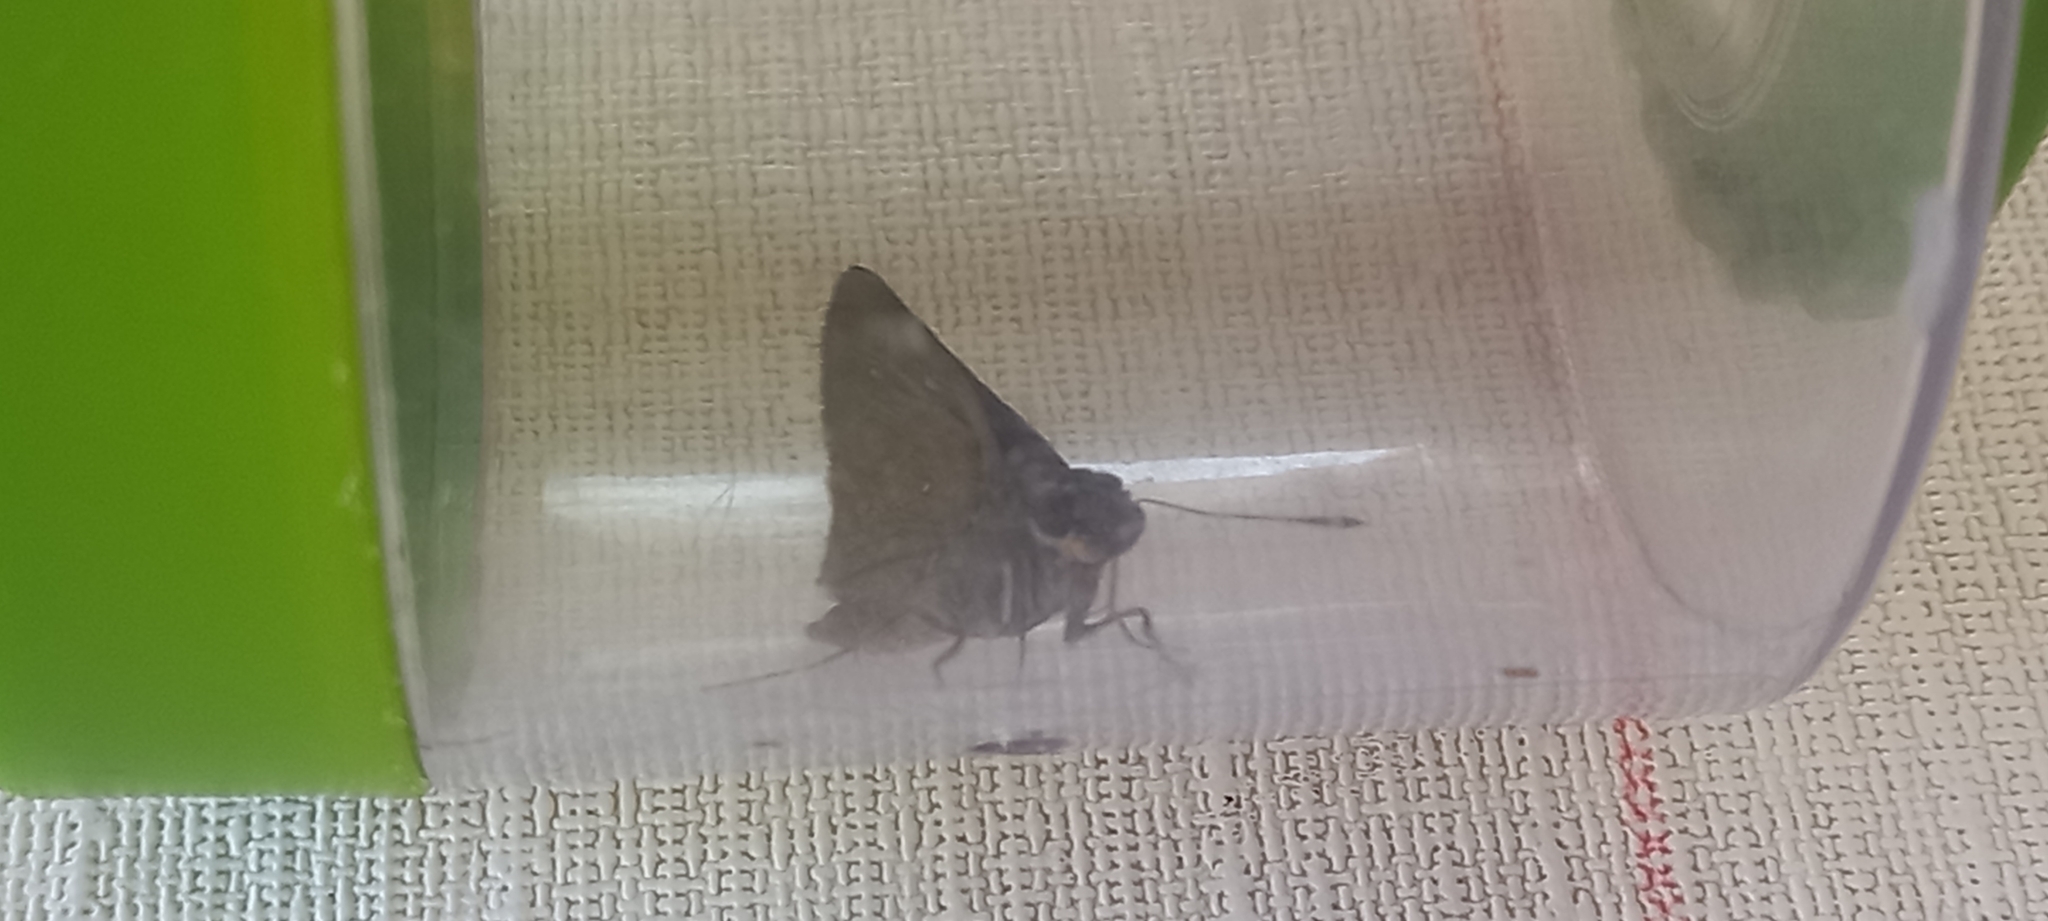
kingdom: Animalia
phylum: Arthropoda
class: Insecta
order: Lepidoptera
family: Hesperiidae
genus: Pelopidas
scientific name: Pelopidas thrax
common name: Millet skipper
